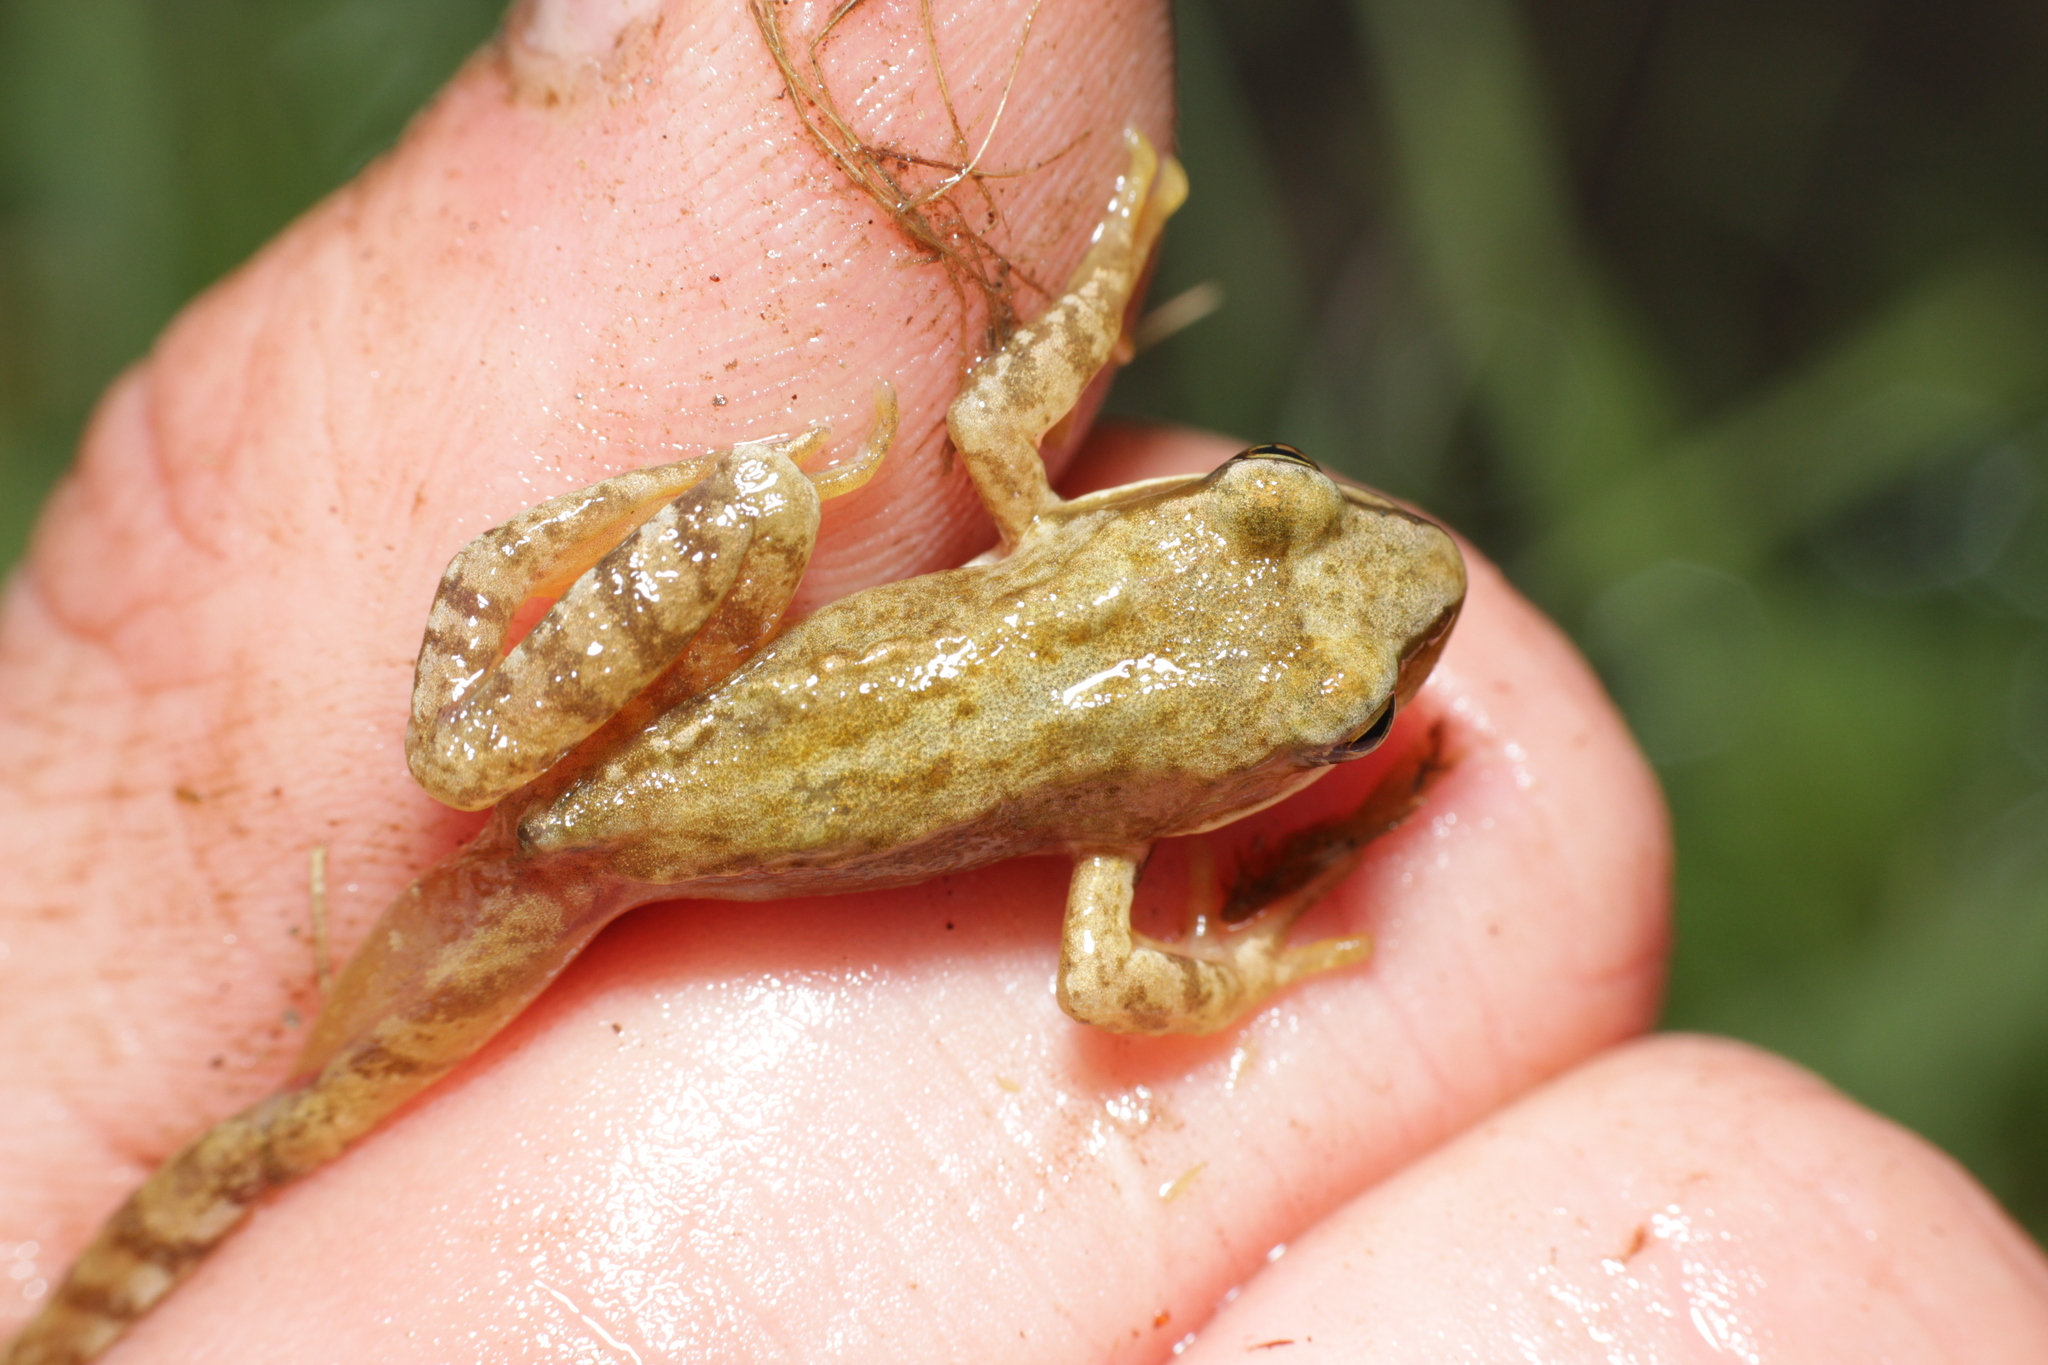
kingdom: Animalia
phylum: Chordata
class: Amphibia
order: Anura
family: Ranidae
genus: Rana
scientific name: Rana temporaria
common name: Common frog
